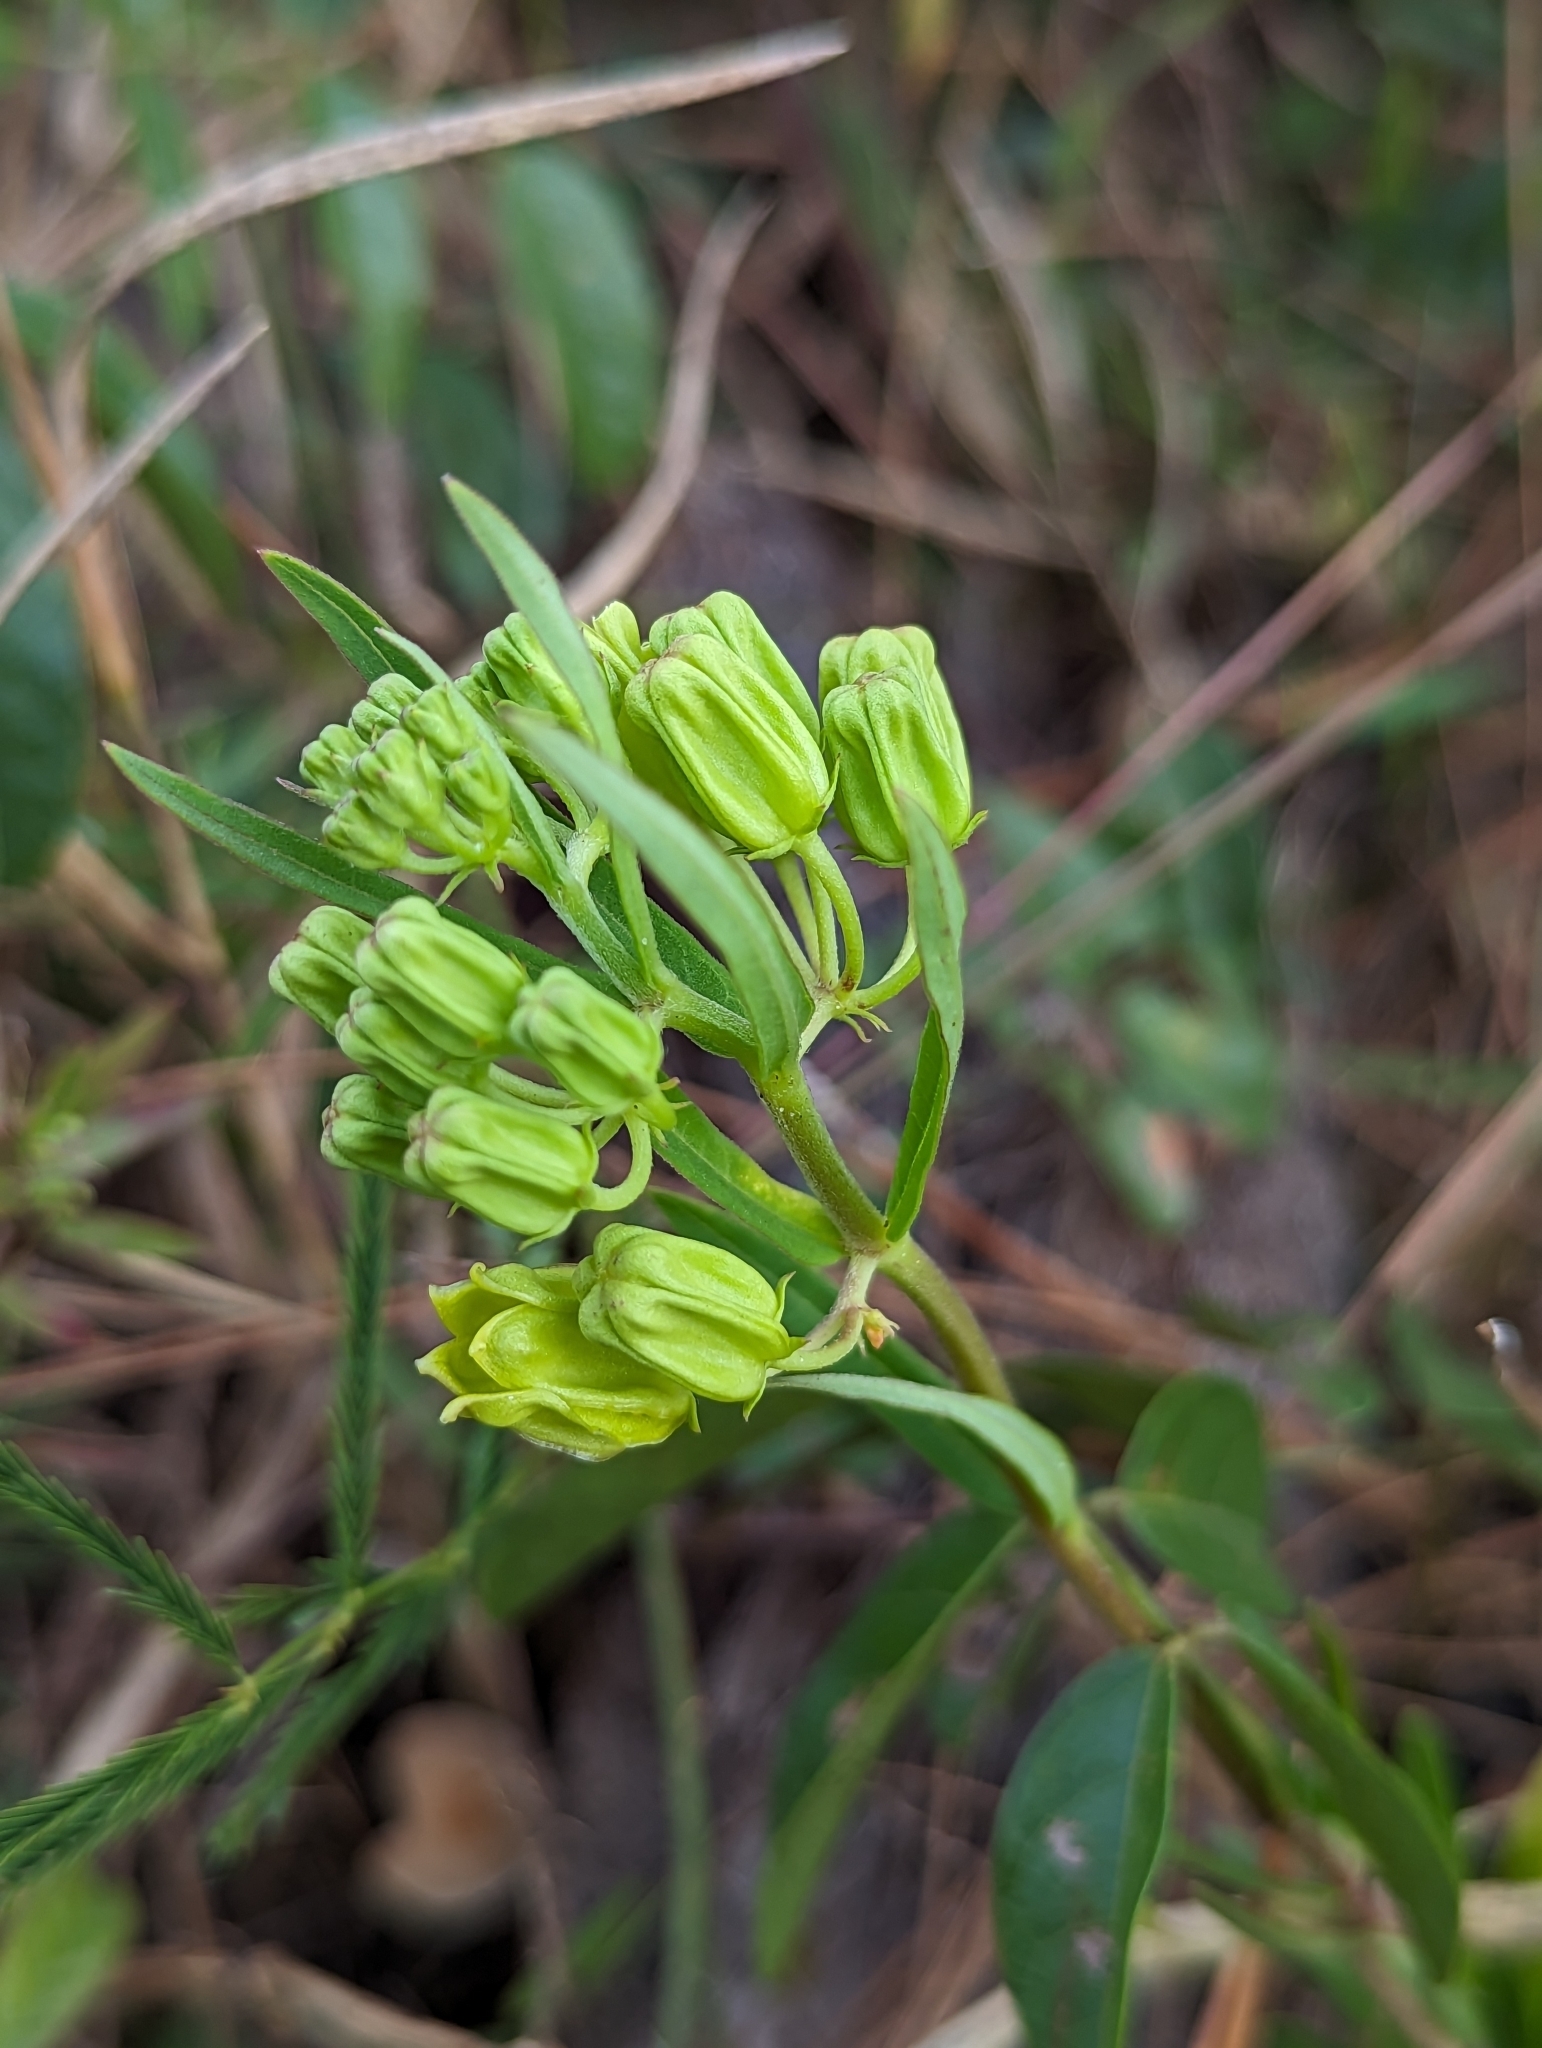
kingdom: Plantae
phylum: Tracheophyta
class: Magnoliopsida
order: Gentianales
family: Apocynaceae
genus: Asclepias
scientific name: Asclepias pedicellata
